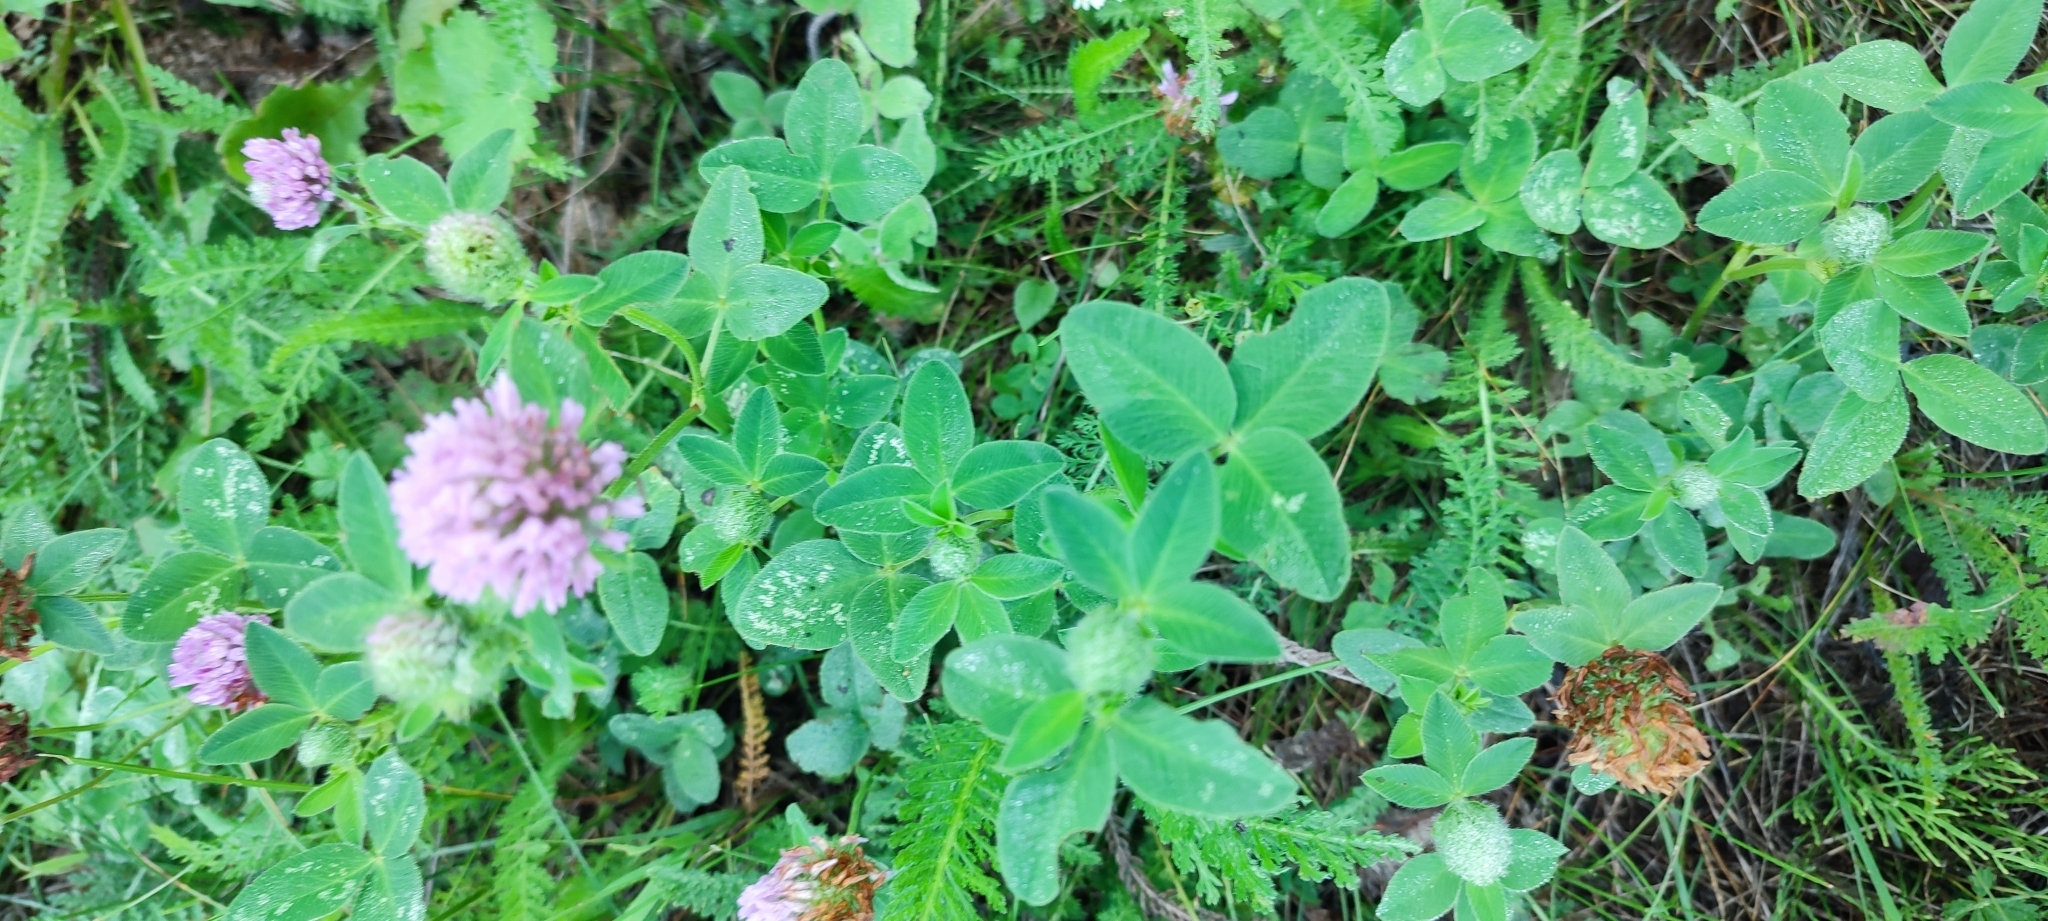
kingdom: Plantae
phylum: Tracheophyta
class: Magnoliopsida
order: Fabales
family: Fabaceae
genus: Trifolium
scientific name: Trifolium pratense
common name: Red clover
